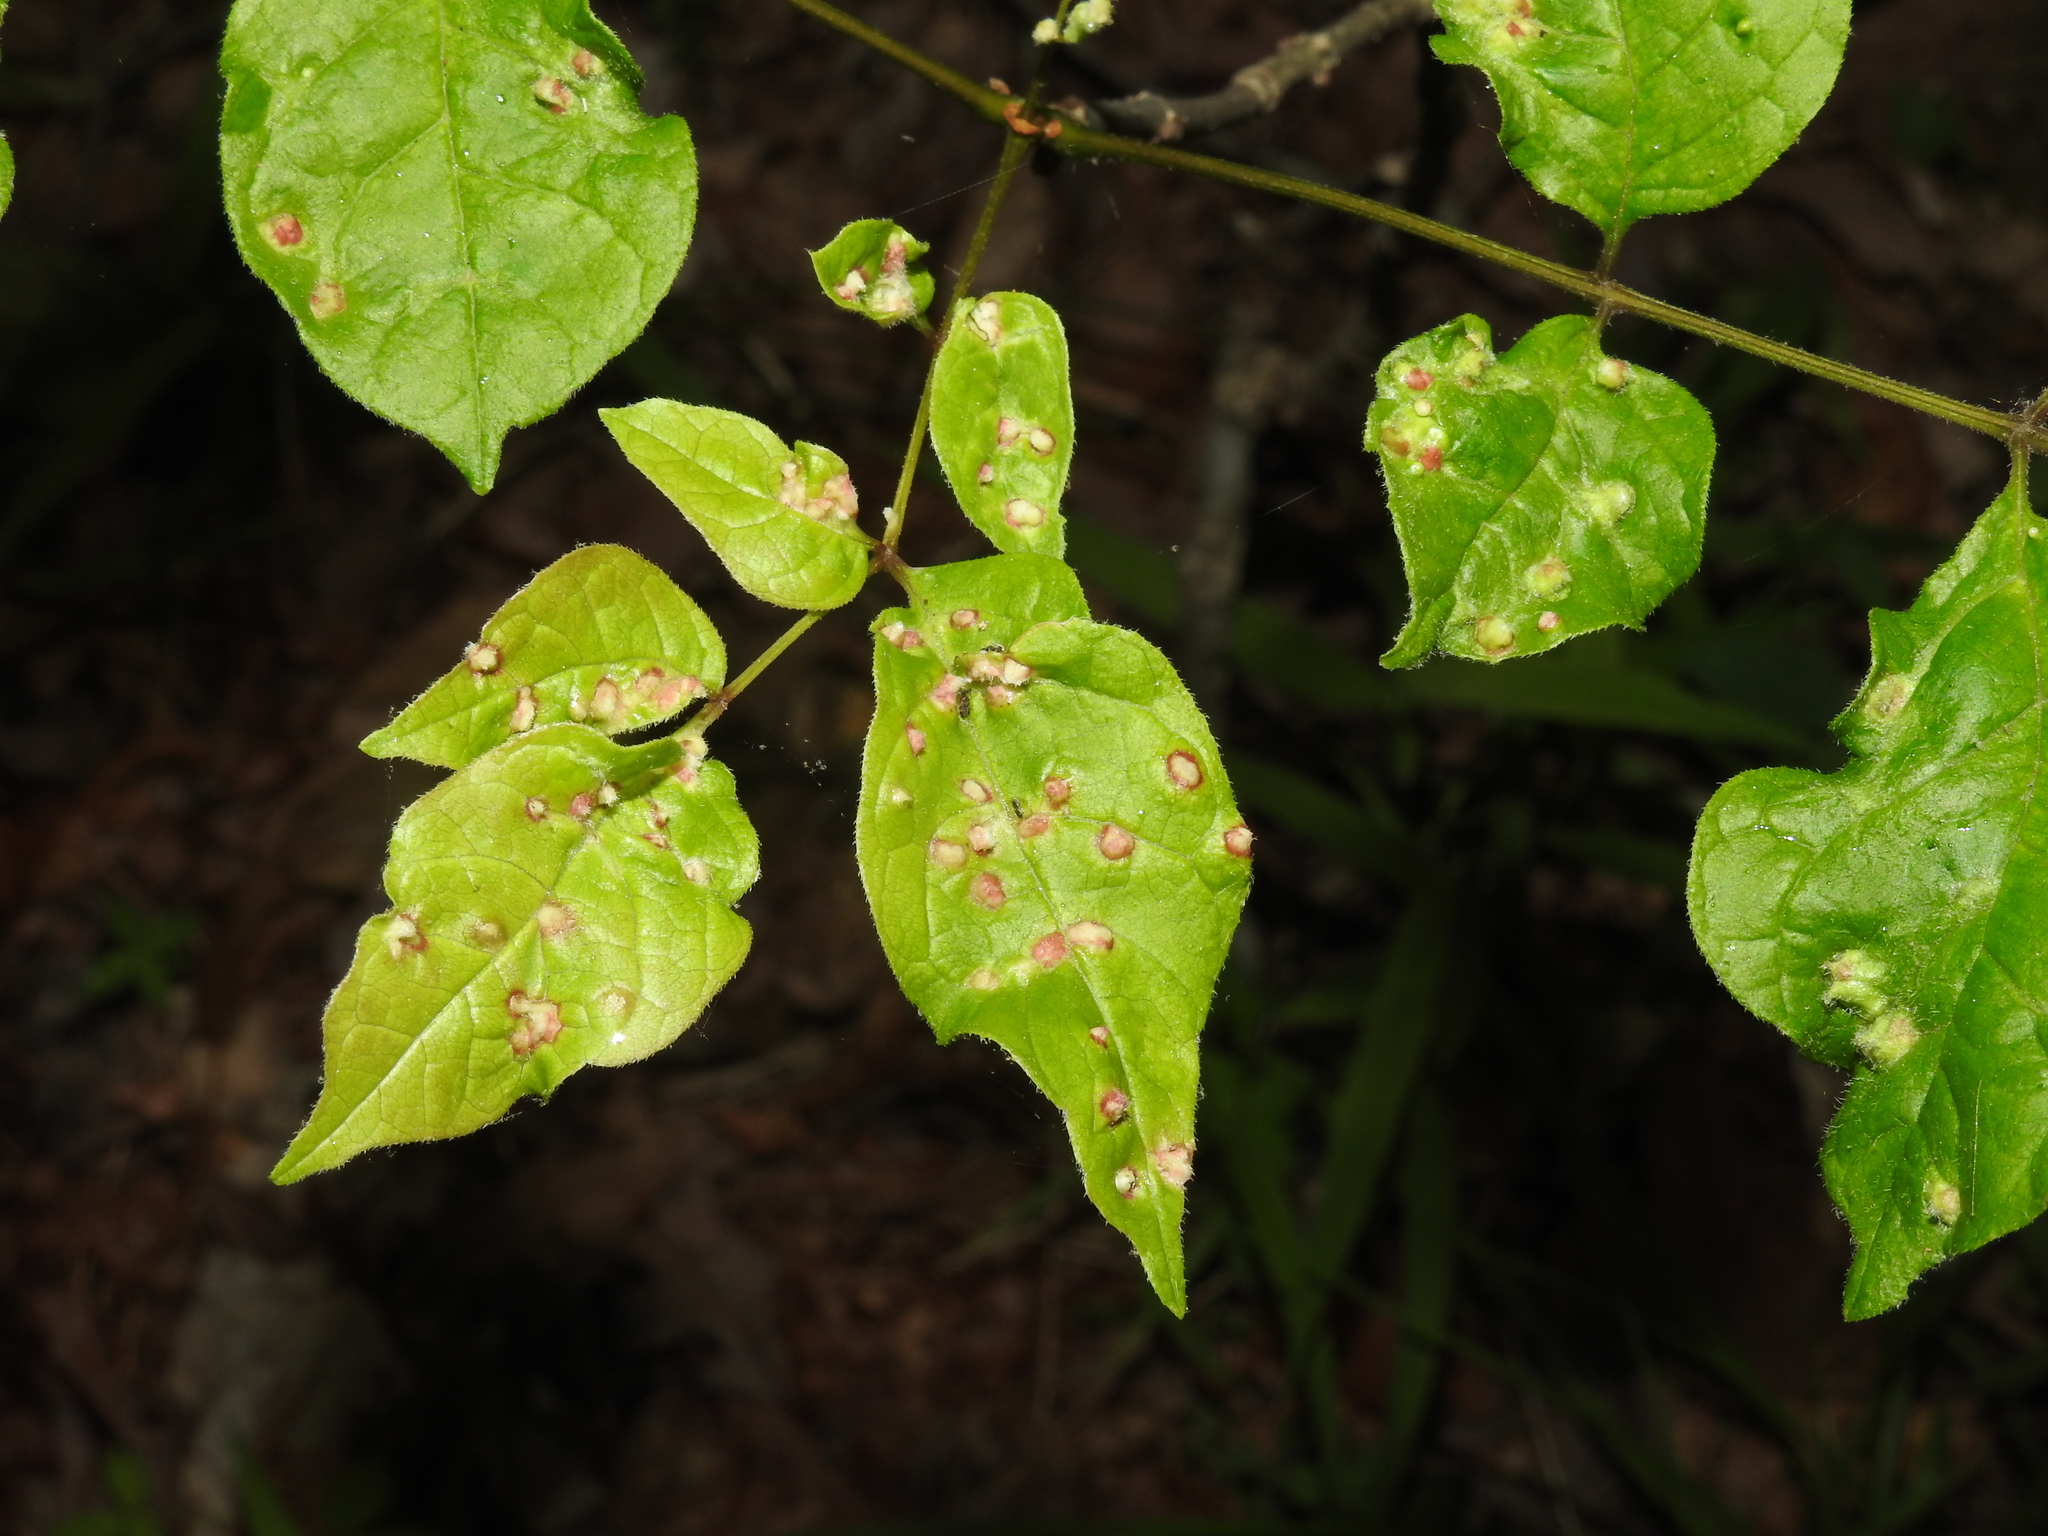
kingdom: Animalia
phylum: Arthropoda
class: Arachnida
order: Trombidiformes
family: Eriophyidae
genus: Aceria
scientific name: Aceria fraxinicola
